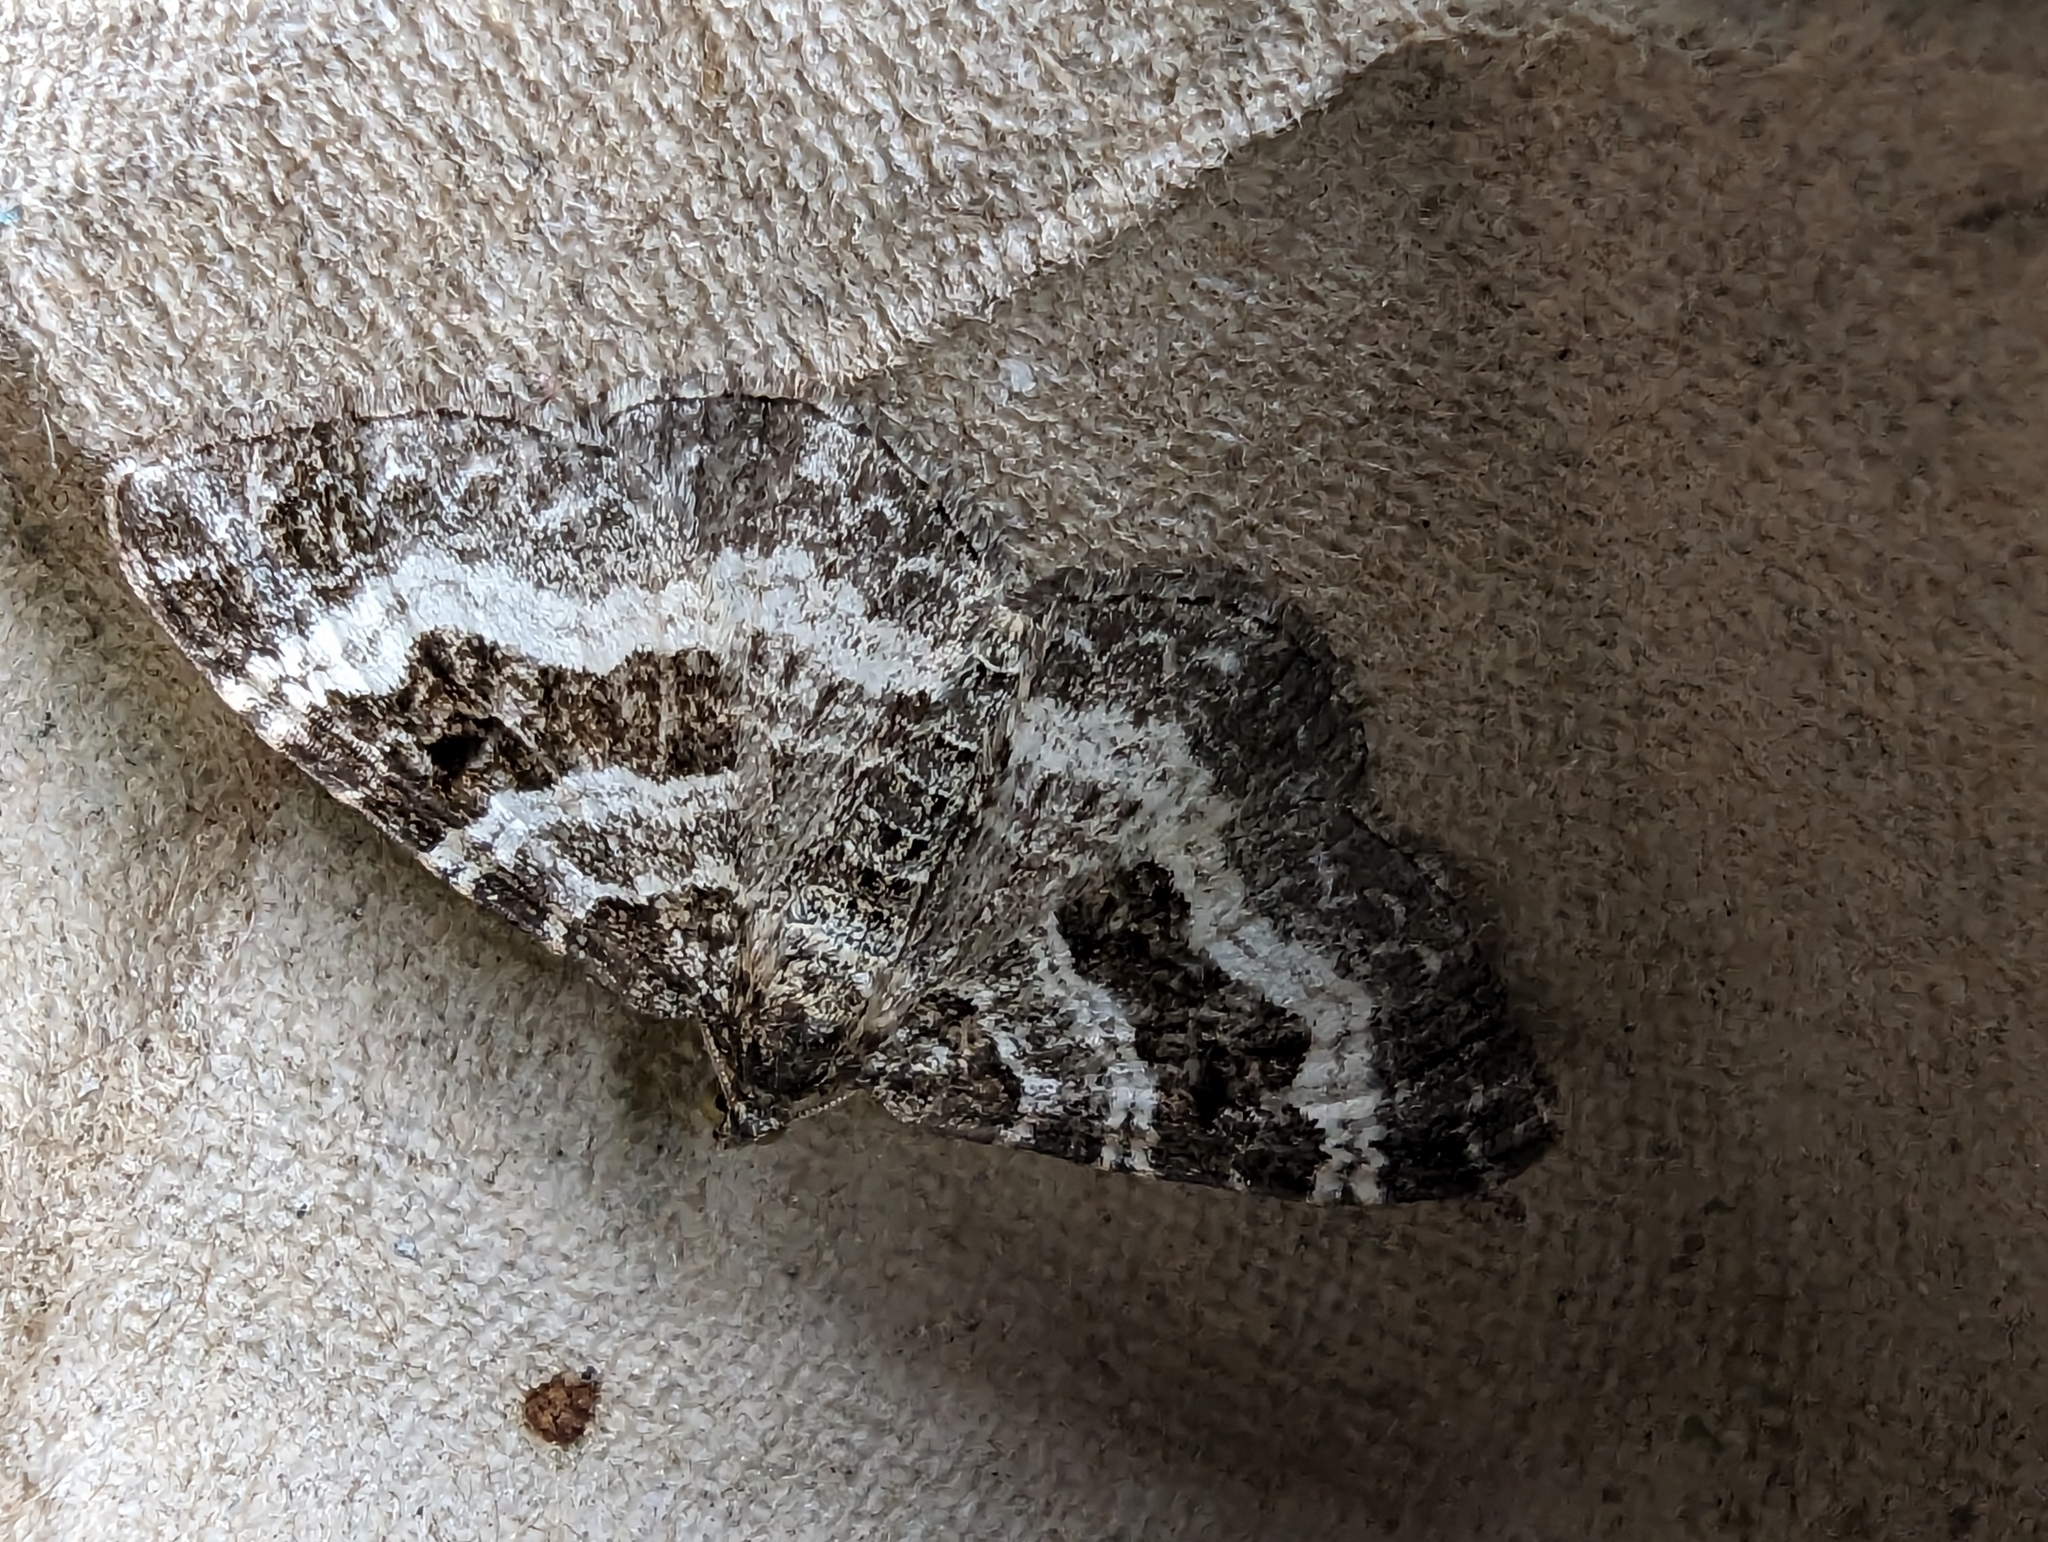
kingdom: Animalia
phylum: Arthropoda
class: Insecta
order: Lepidoptera
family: Geometridae
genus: Epirrhoe
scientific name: Epirrhoe alternata
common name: Common carpet
